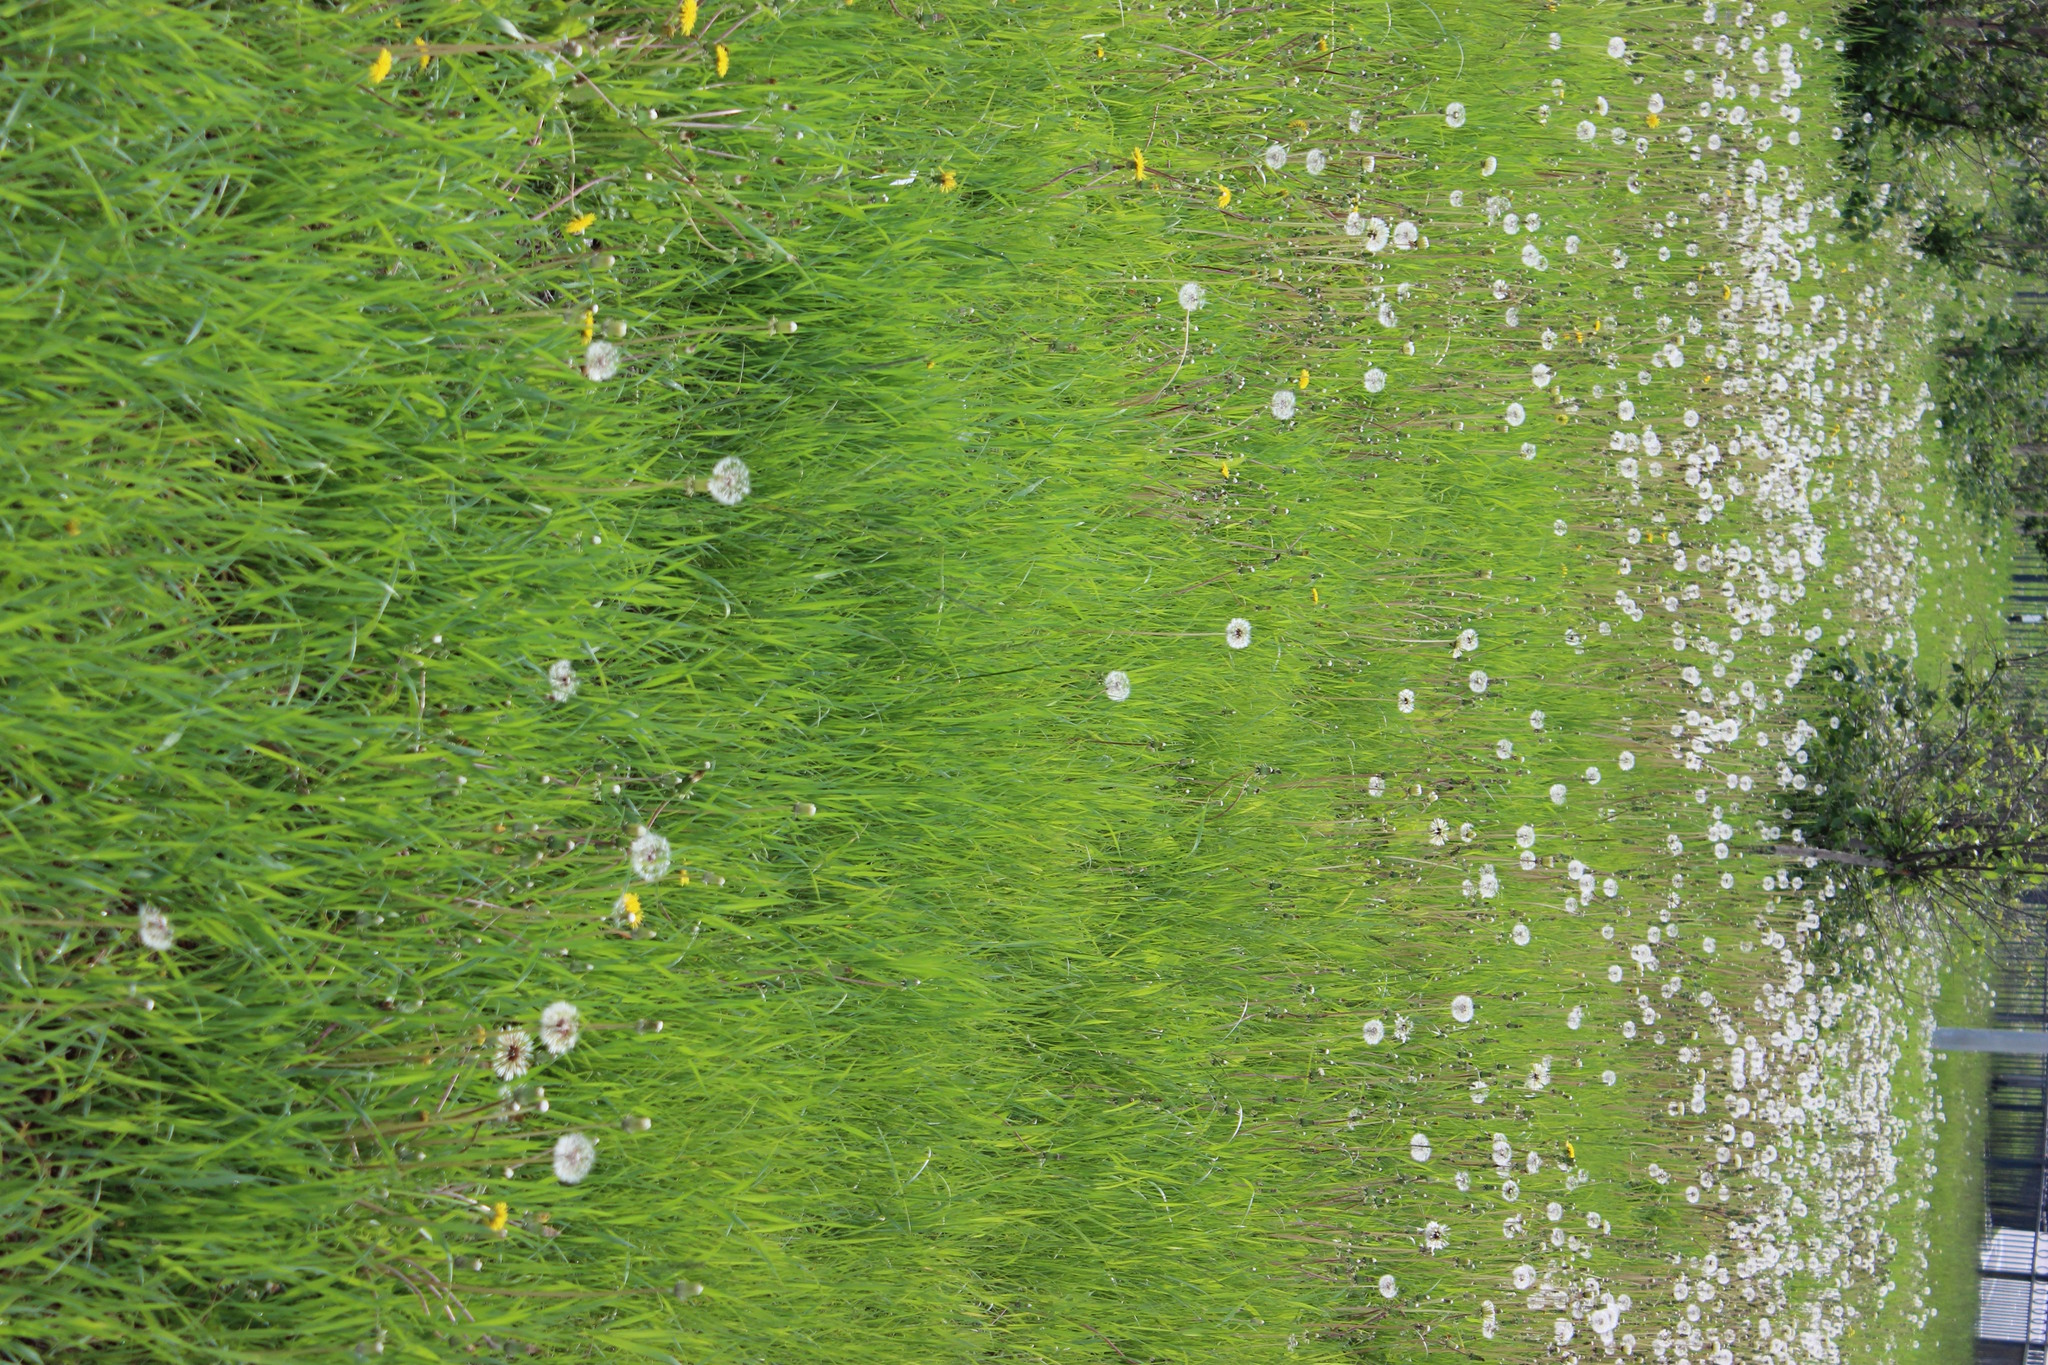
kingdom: Plantae
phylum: Tracheophyta
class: Magnoliopsida
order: Asterales
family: Asteraceae
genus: Taraxacum
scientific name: Taraxacum officinale
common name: Common dandelion
